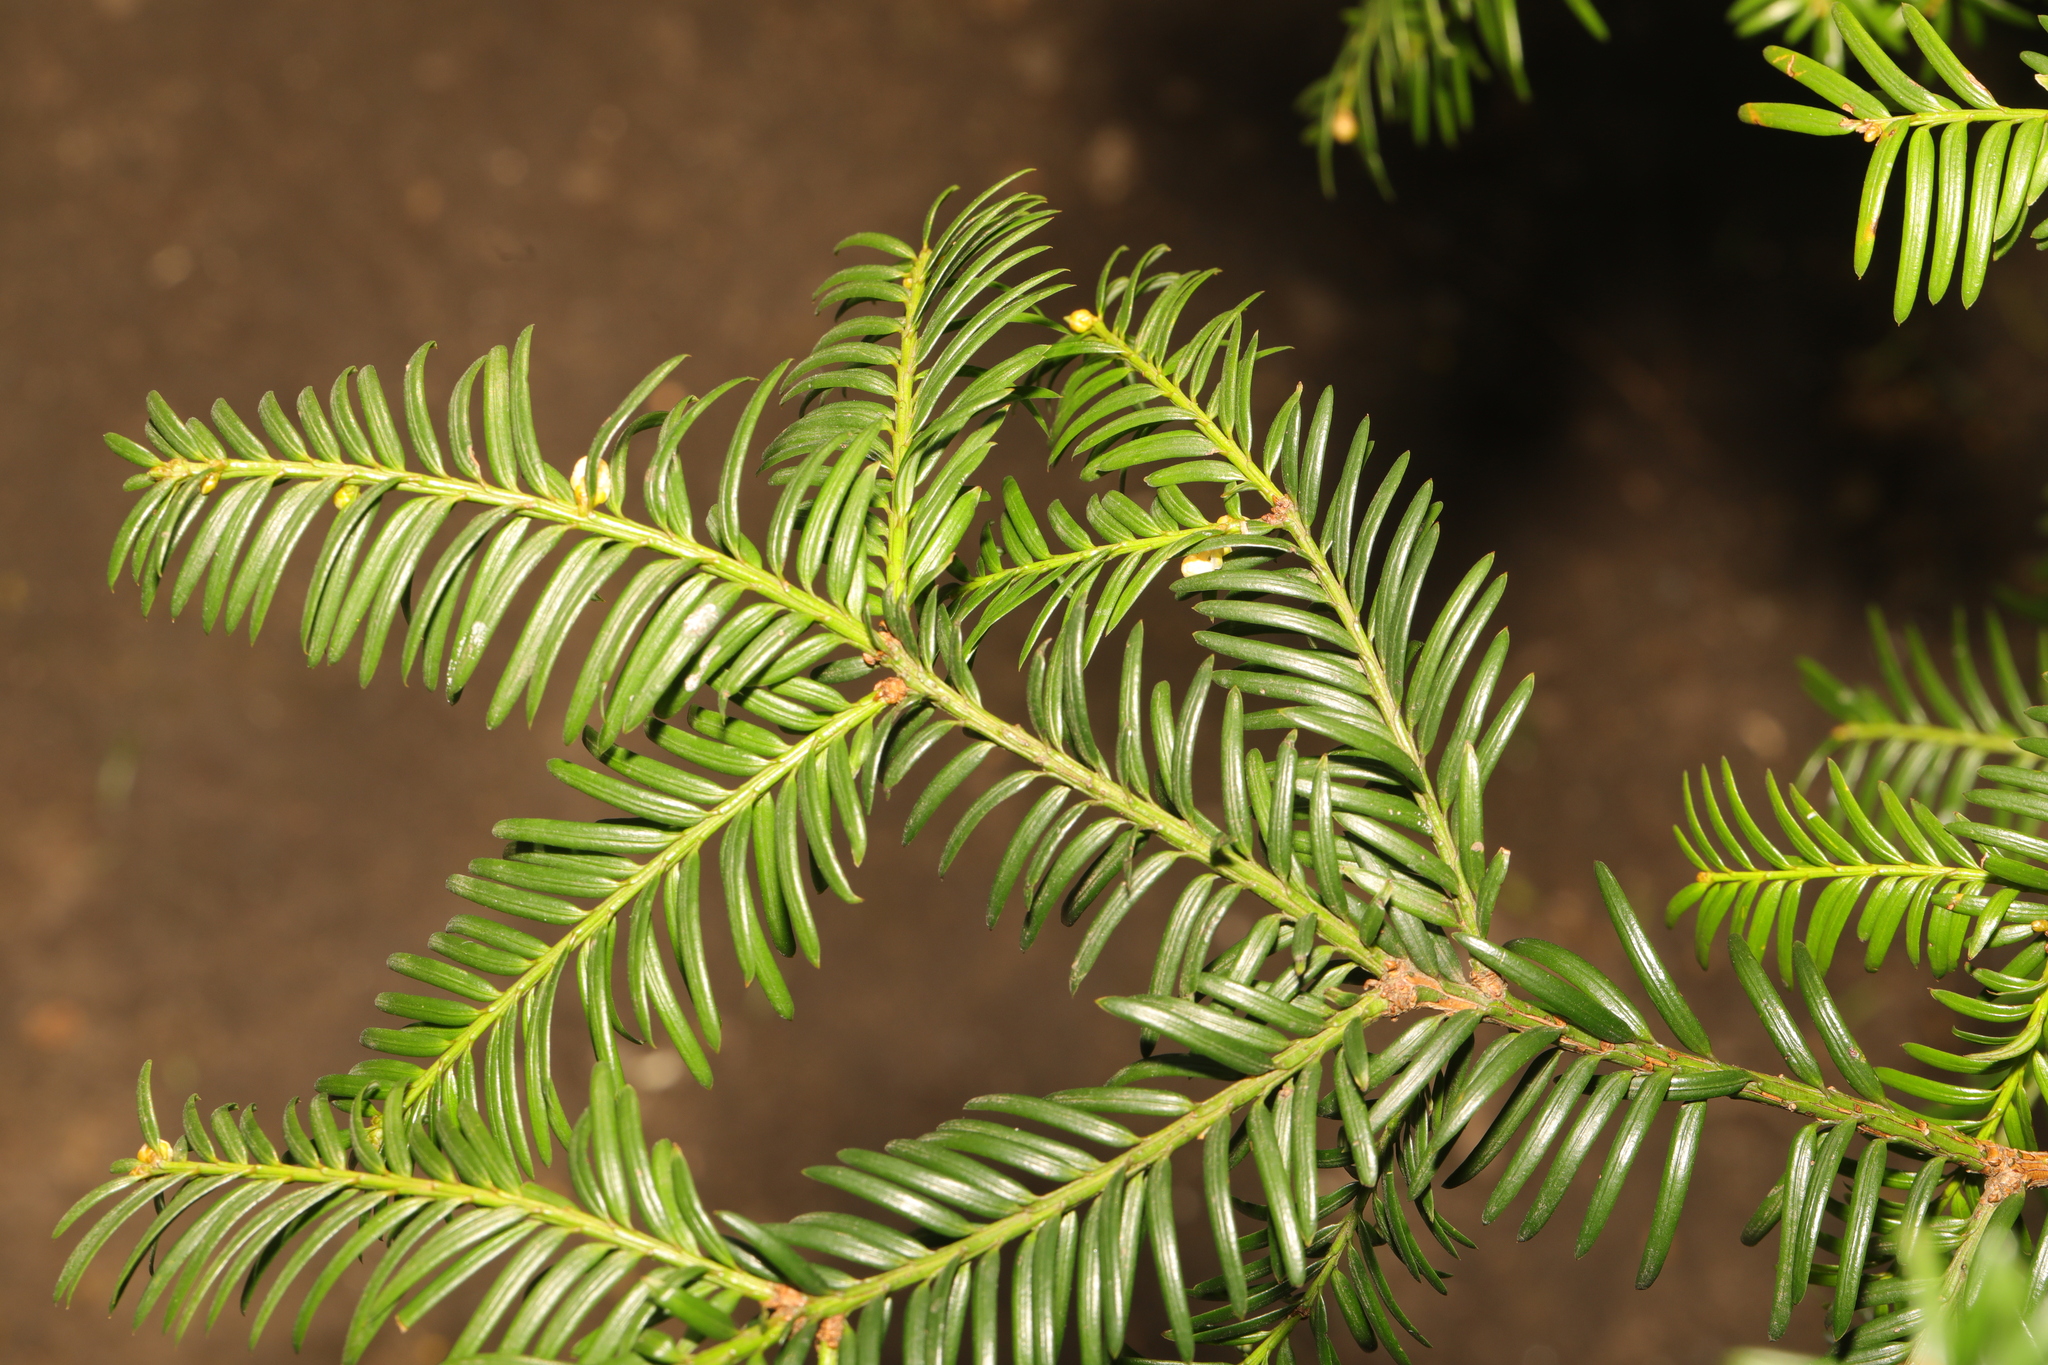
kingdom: Plantae
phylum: Tracheophyta
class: Pinopsida
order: Pinales
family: Taxaceae
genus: Taxus
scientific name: Taxus baccata
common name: Yew
